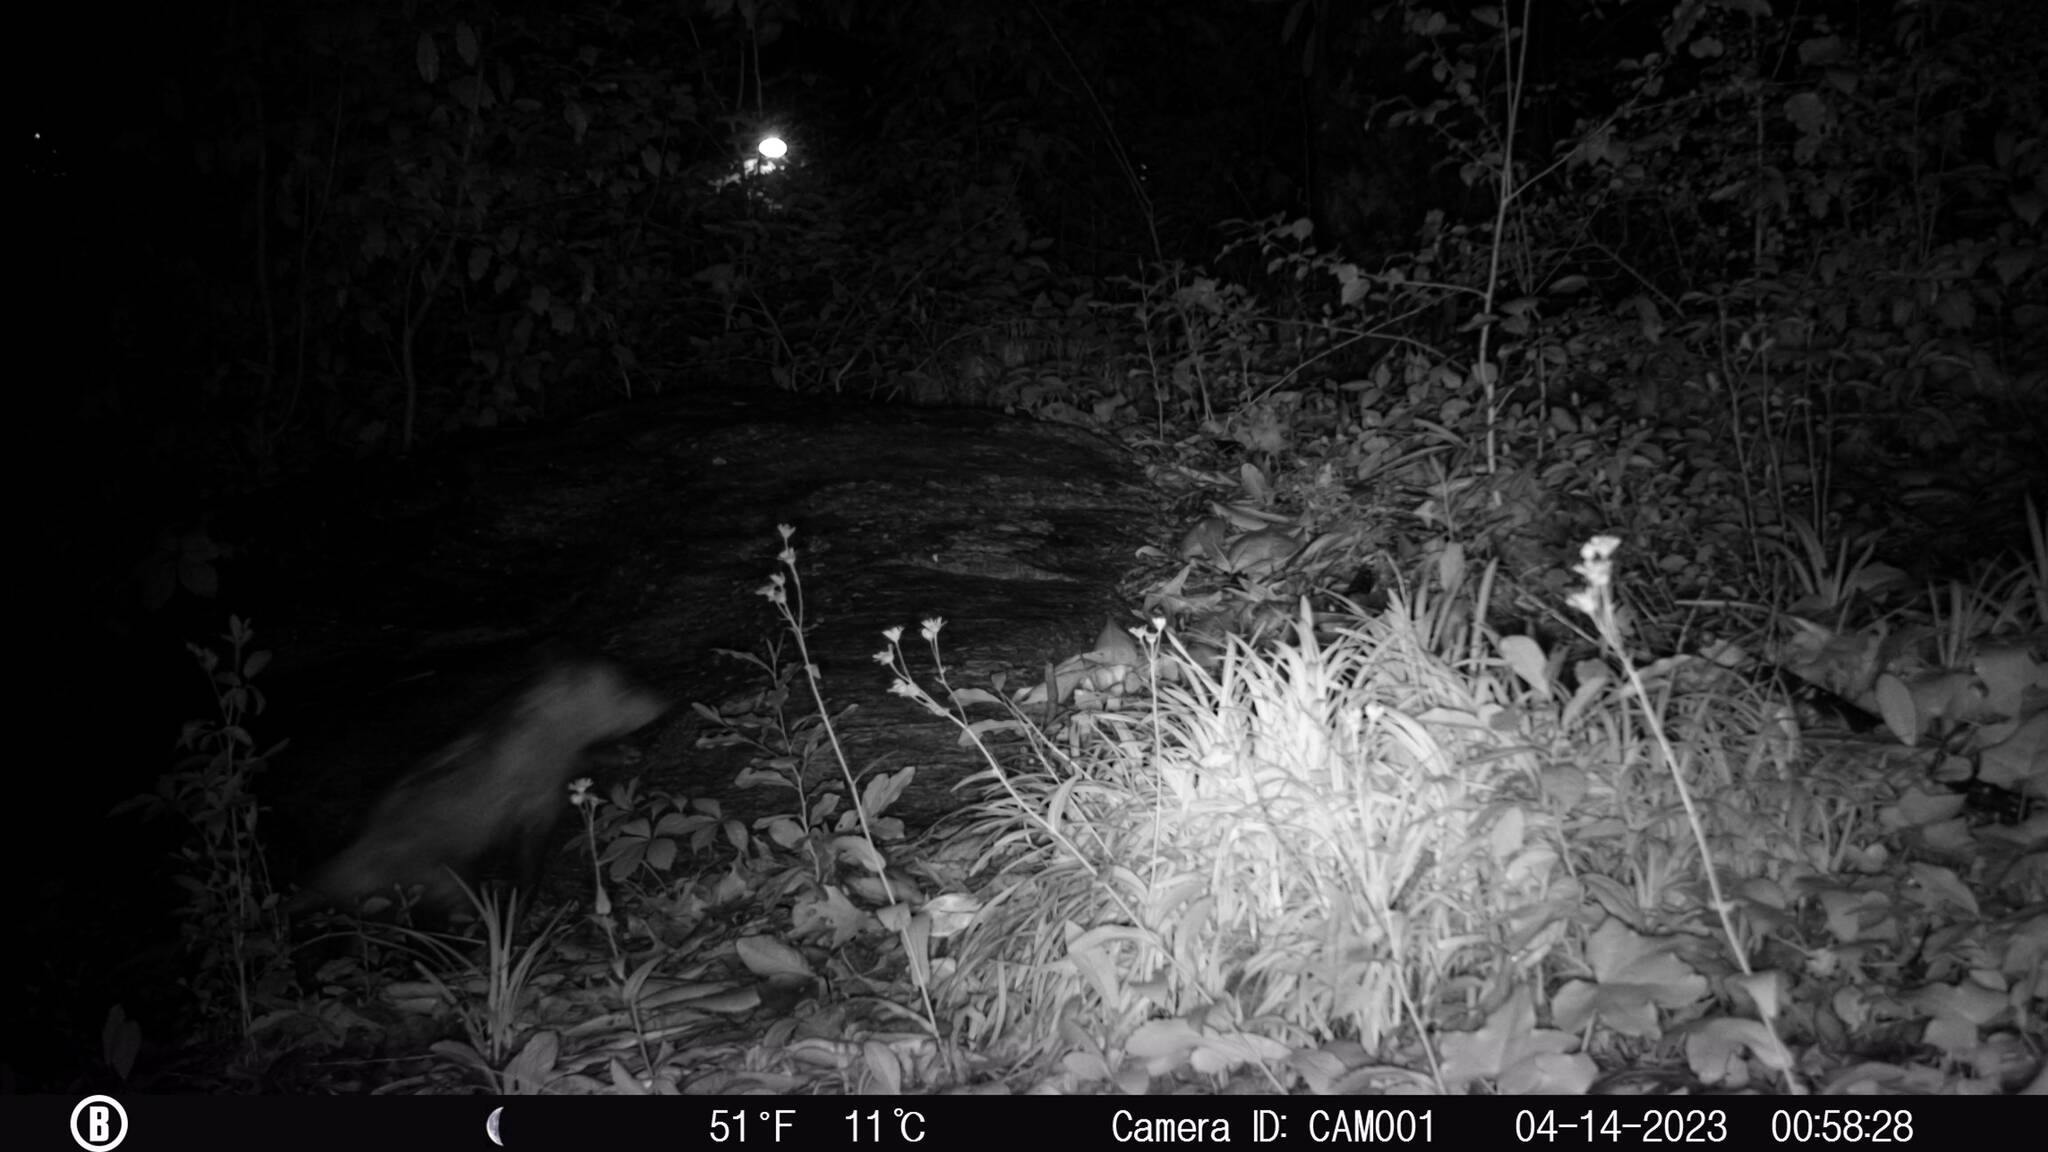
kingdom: Animalia
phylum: Chordata
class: Mammalia
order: Didelphimorphia
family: Didelphidae
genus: Didelphis
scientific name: Didelphis virginiana
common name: Virginia opossum
